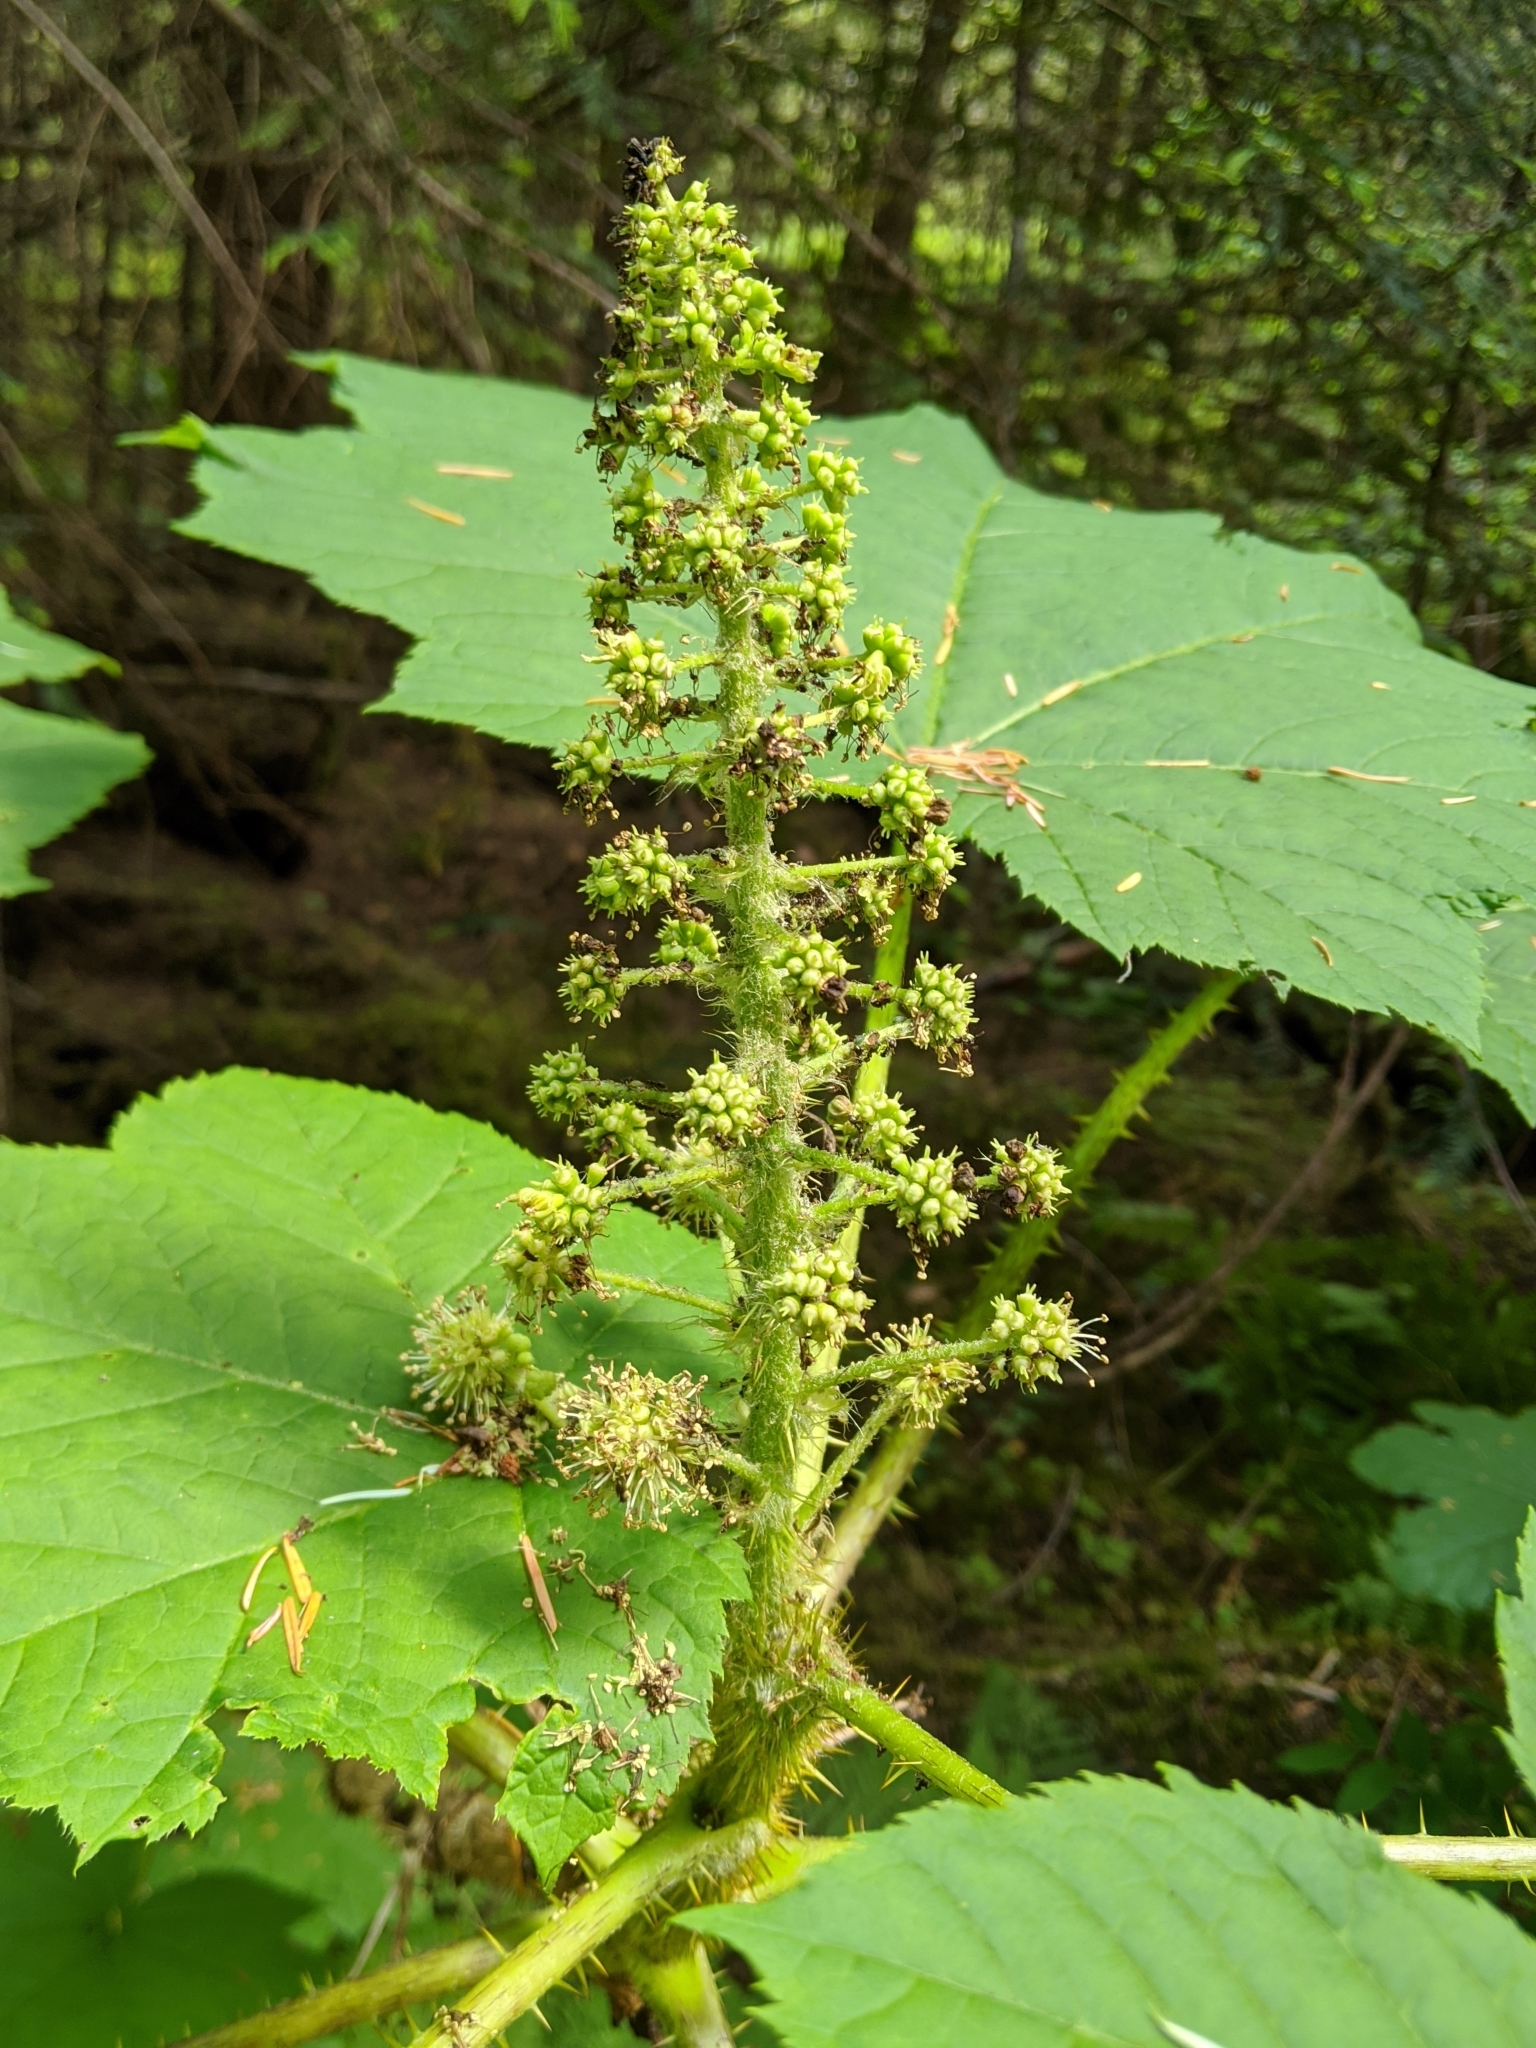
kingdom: Plantae
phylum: Tracheophyta
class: Magnoliopsida
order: Apiales
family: Araliaceae
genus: Oplopanax
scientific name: Oplopanax horridus
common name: Devil's walking-stick
